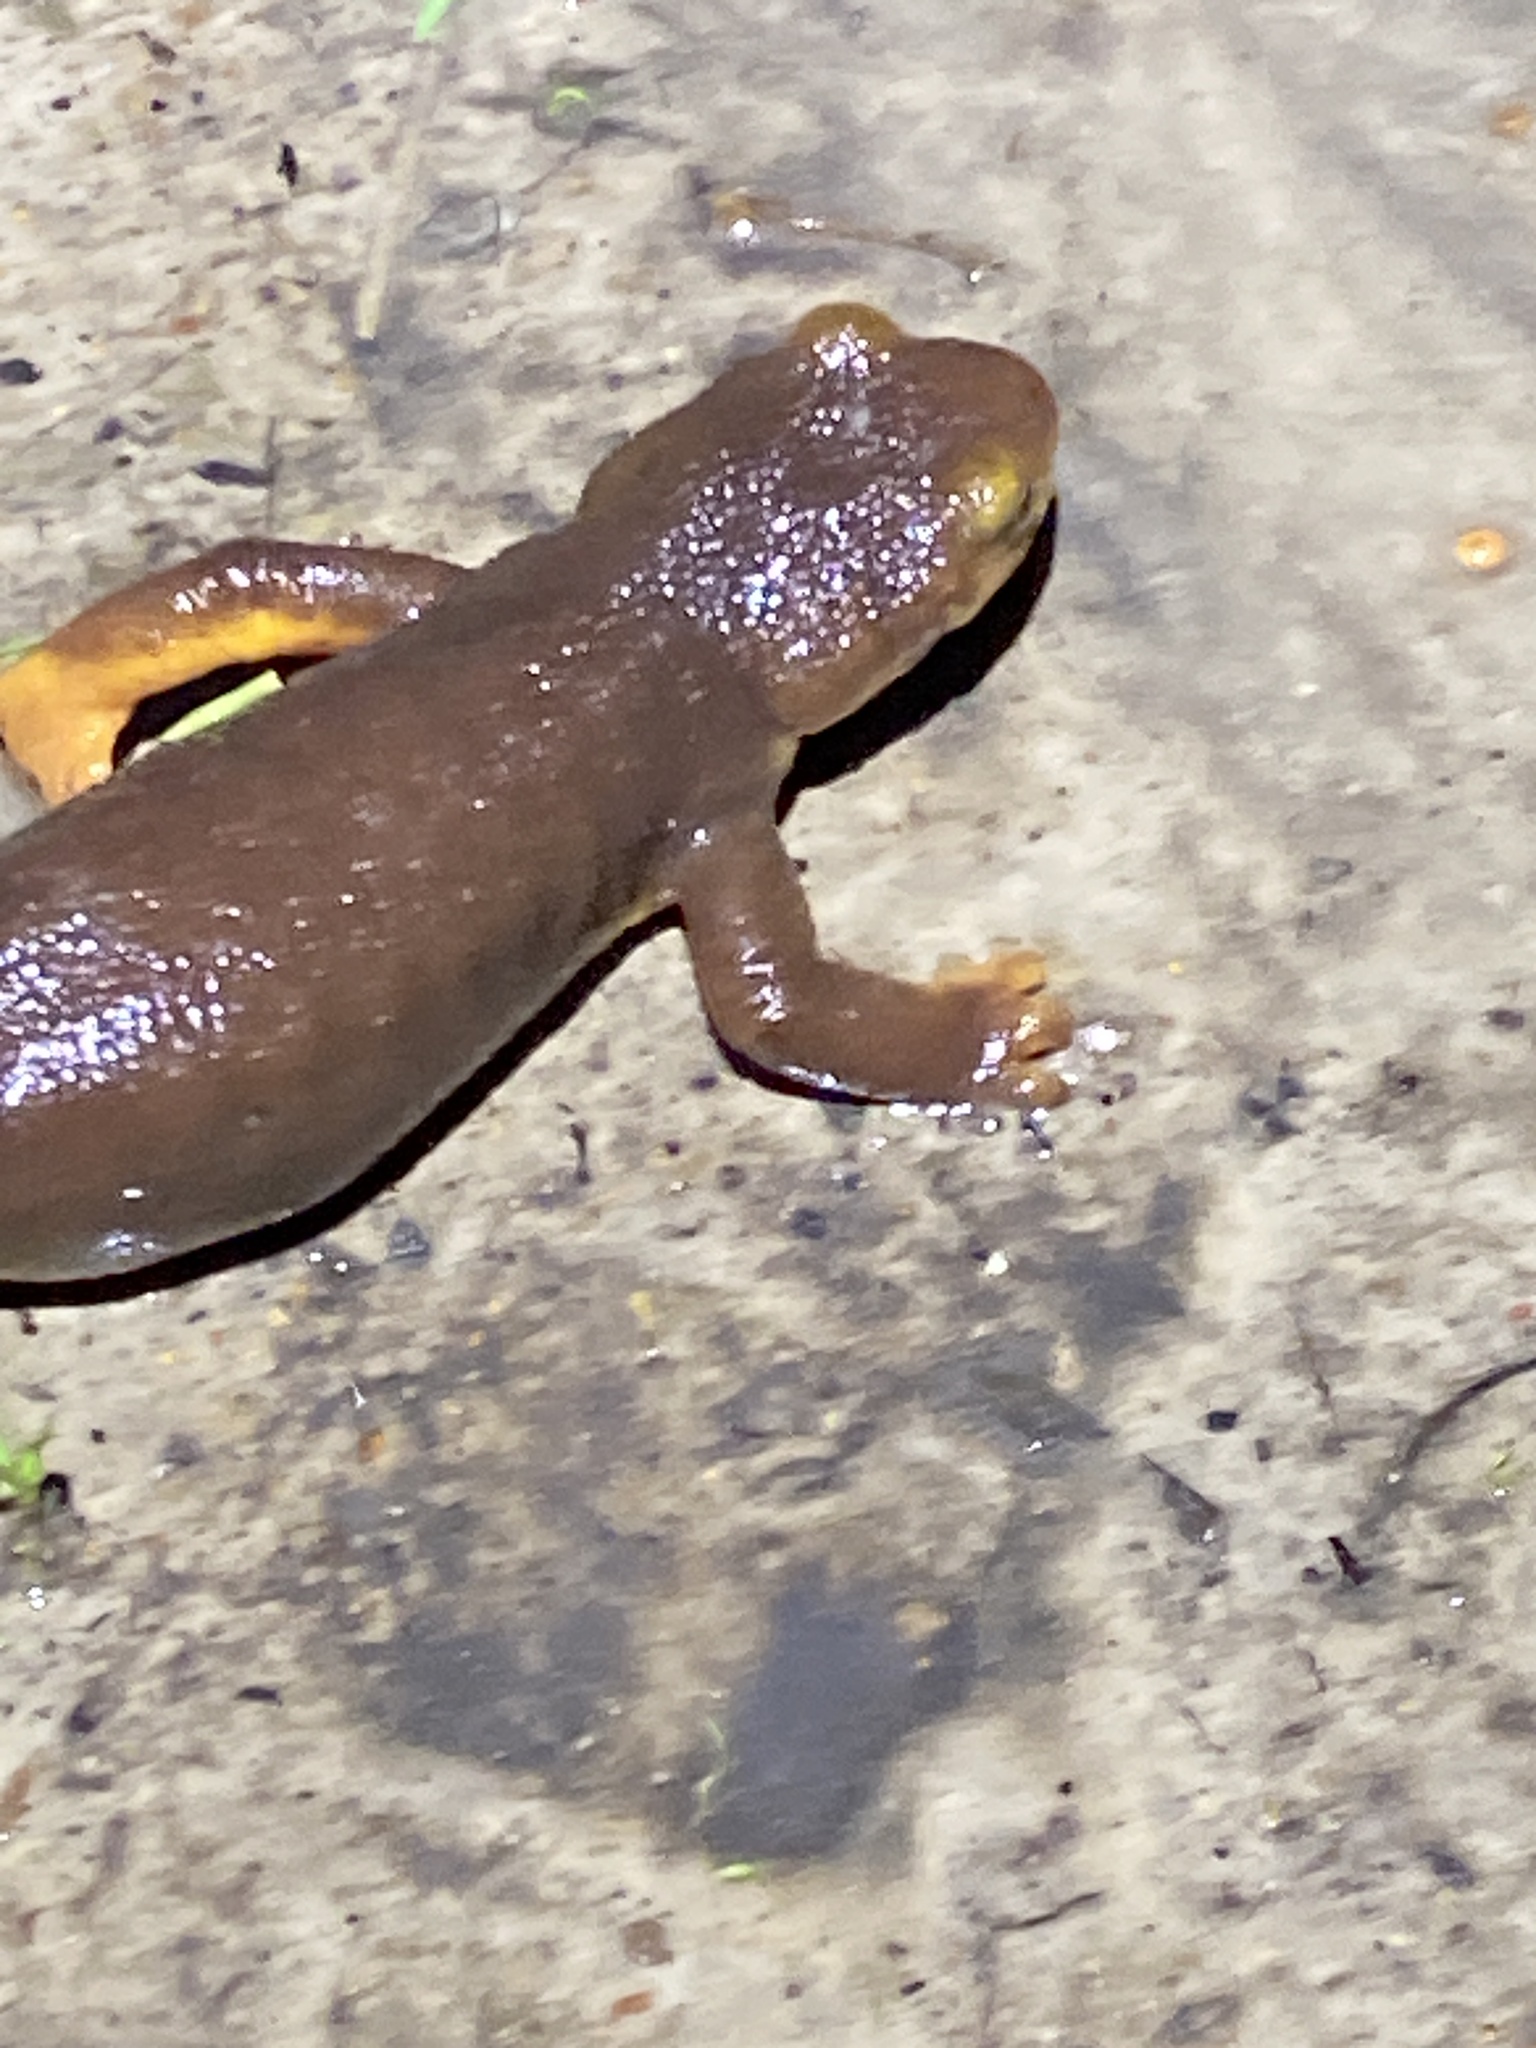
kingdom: Animalia
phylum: Chordata
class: Amphibia
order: Caudata
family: Salamandridae
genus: Taricha
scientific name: Taricha torosa
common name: California newt
